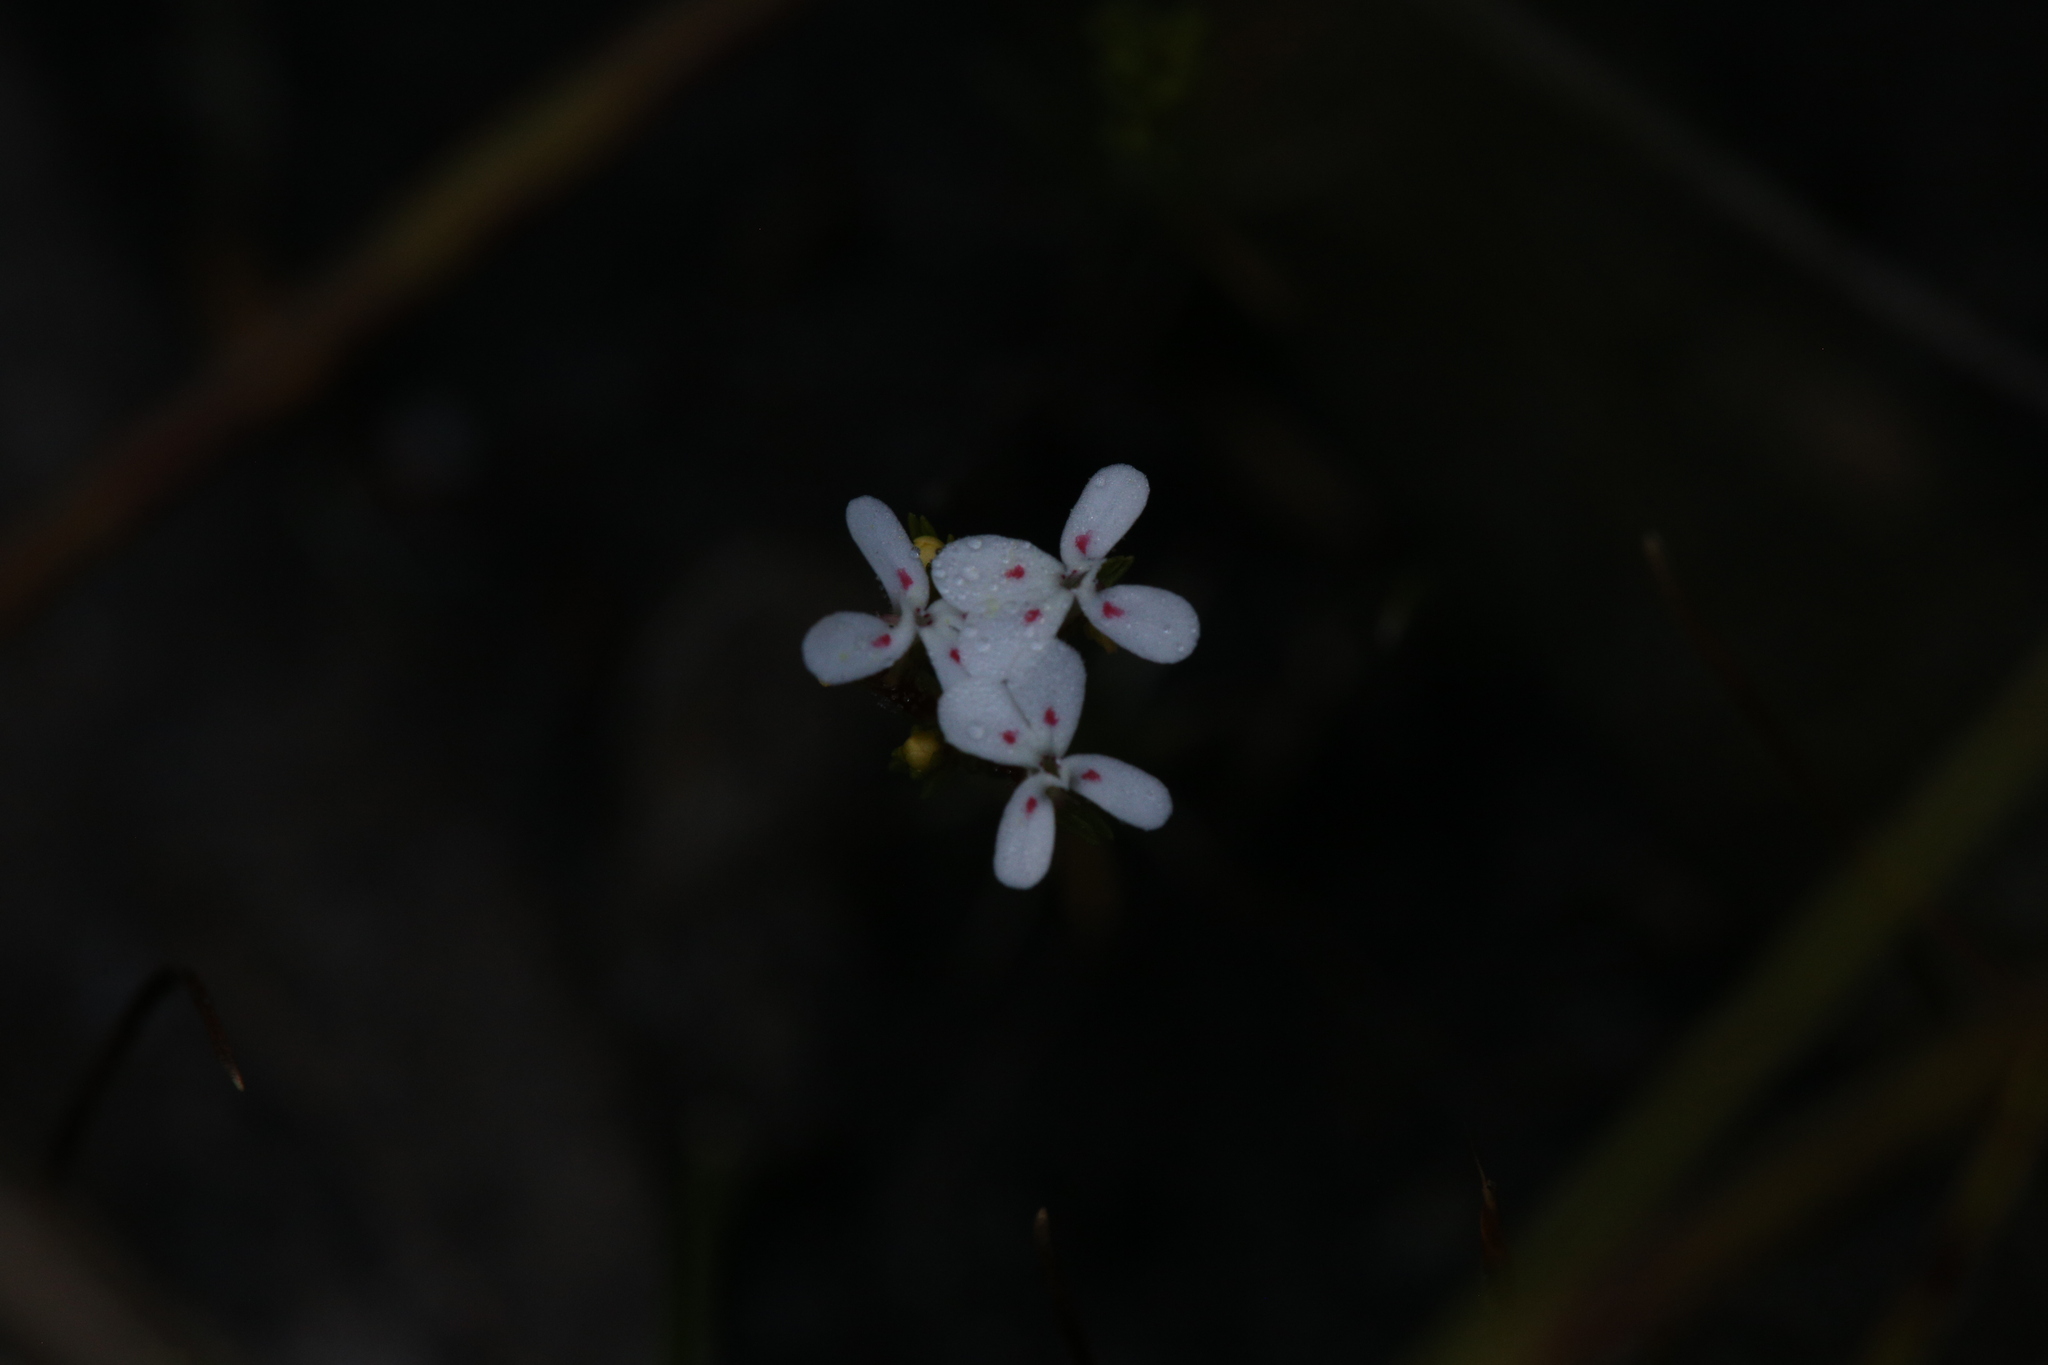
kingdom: Plantae
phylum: Tracheophyta
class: Magnoliopsida
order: Asterales
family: Stylidiaceae
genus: Stylidium
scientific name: Stylidium guttatum
